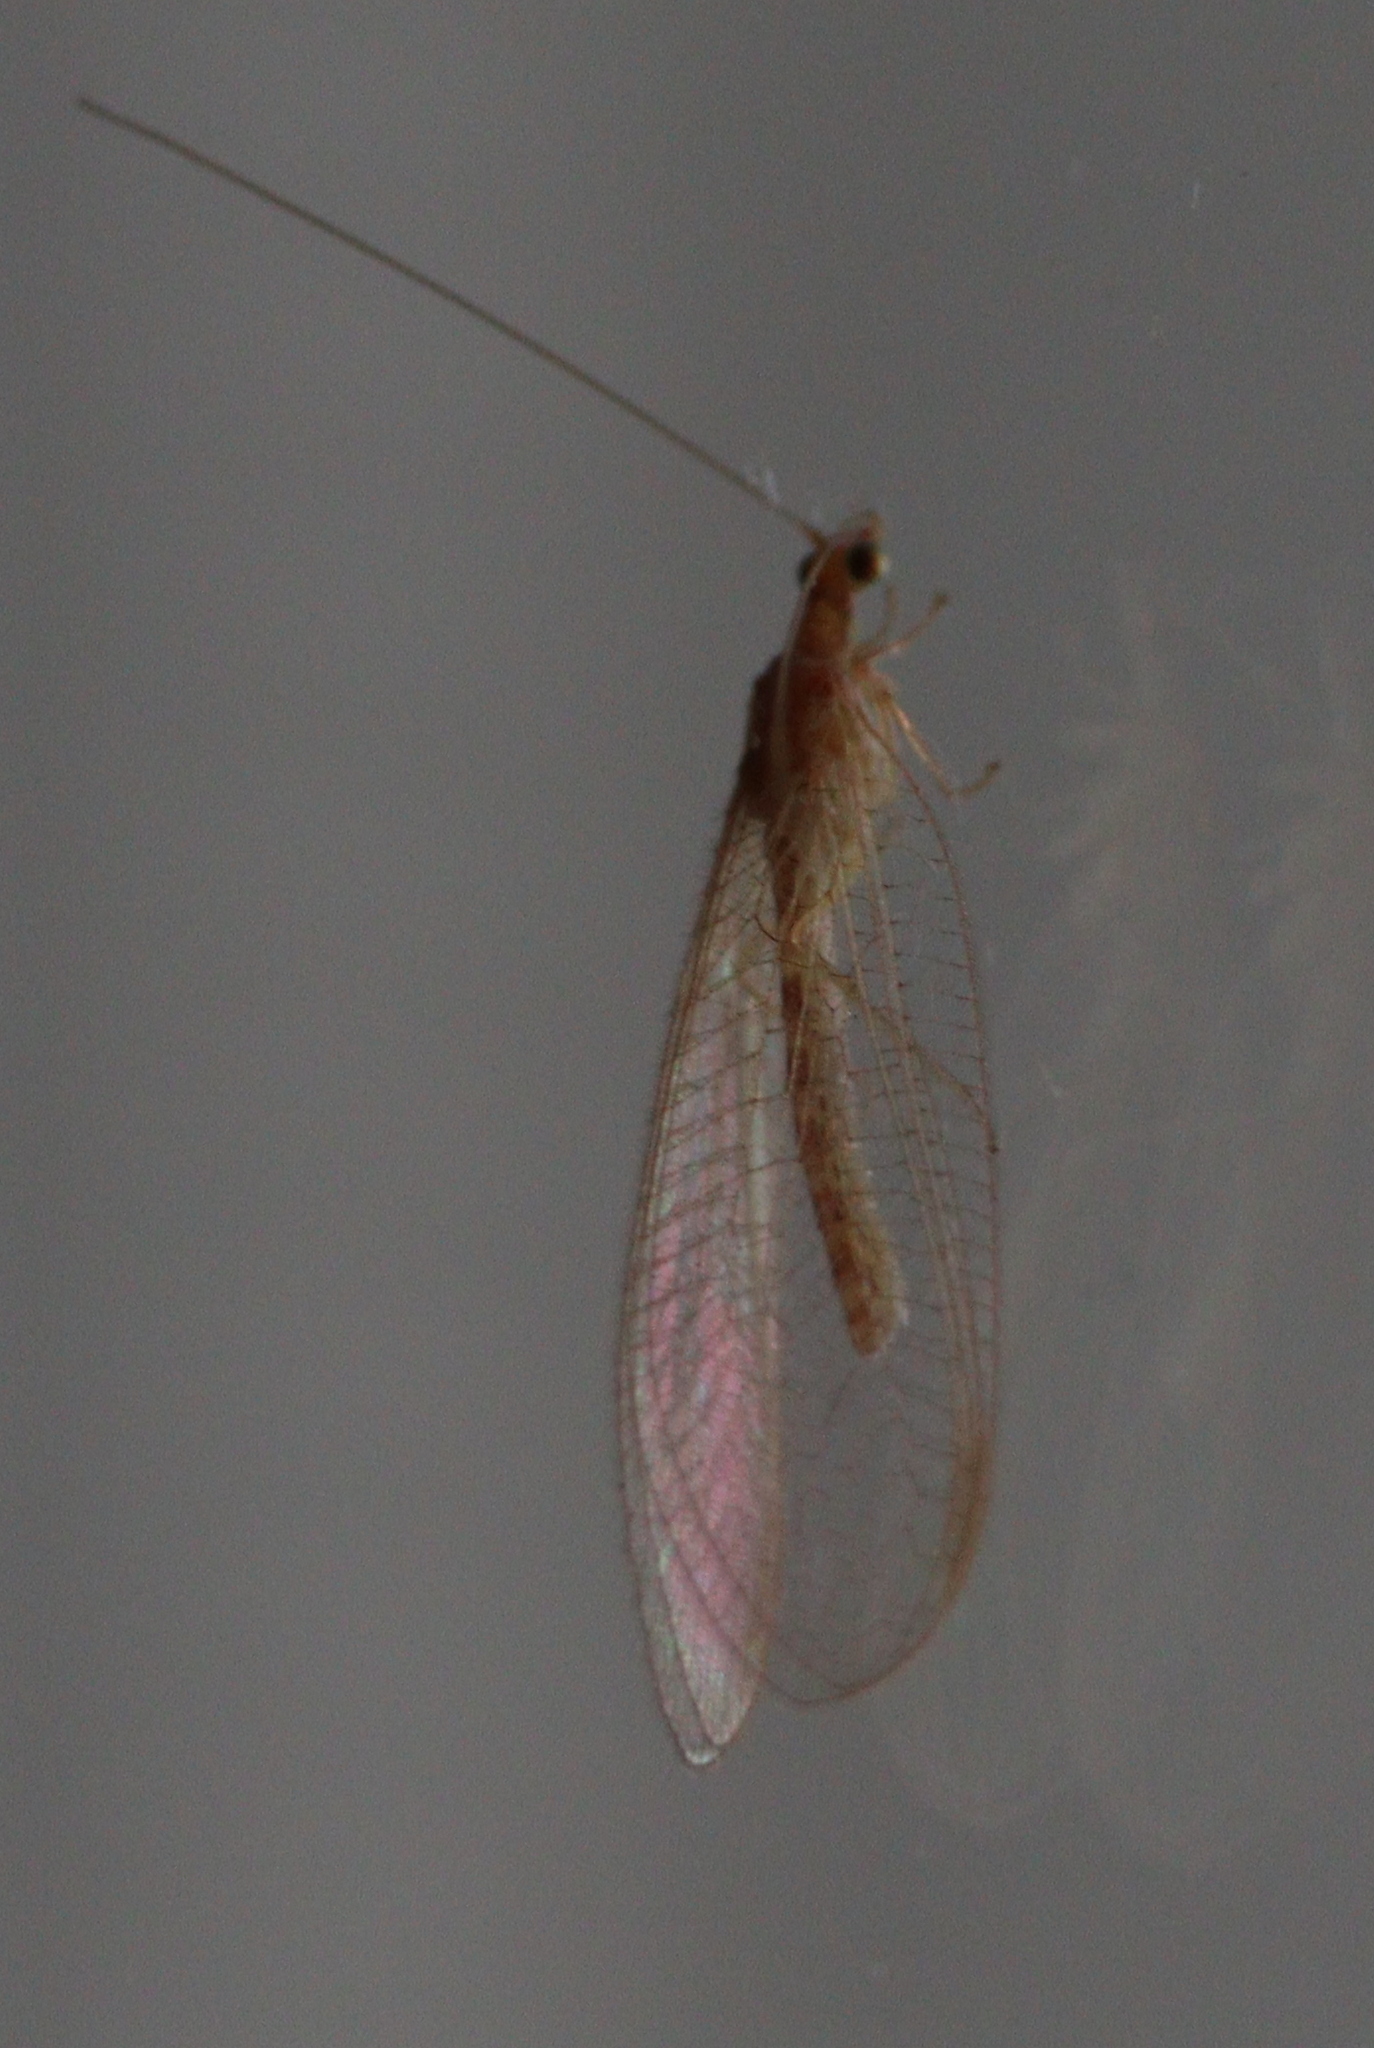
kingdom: Animalia
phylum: Arthropoda
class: Insecta
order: Neuroptera
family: Chrysopidae
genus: Chrysoperla
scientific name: Chrysoperla
